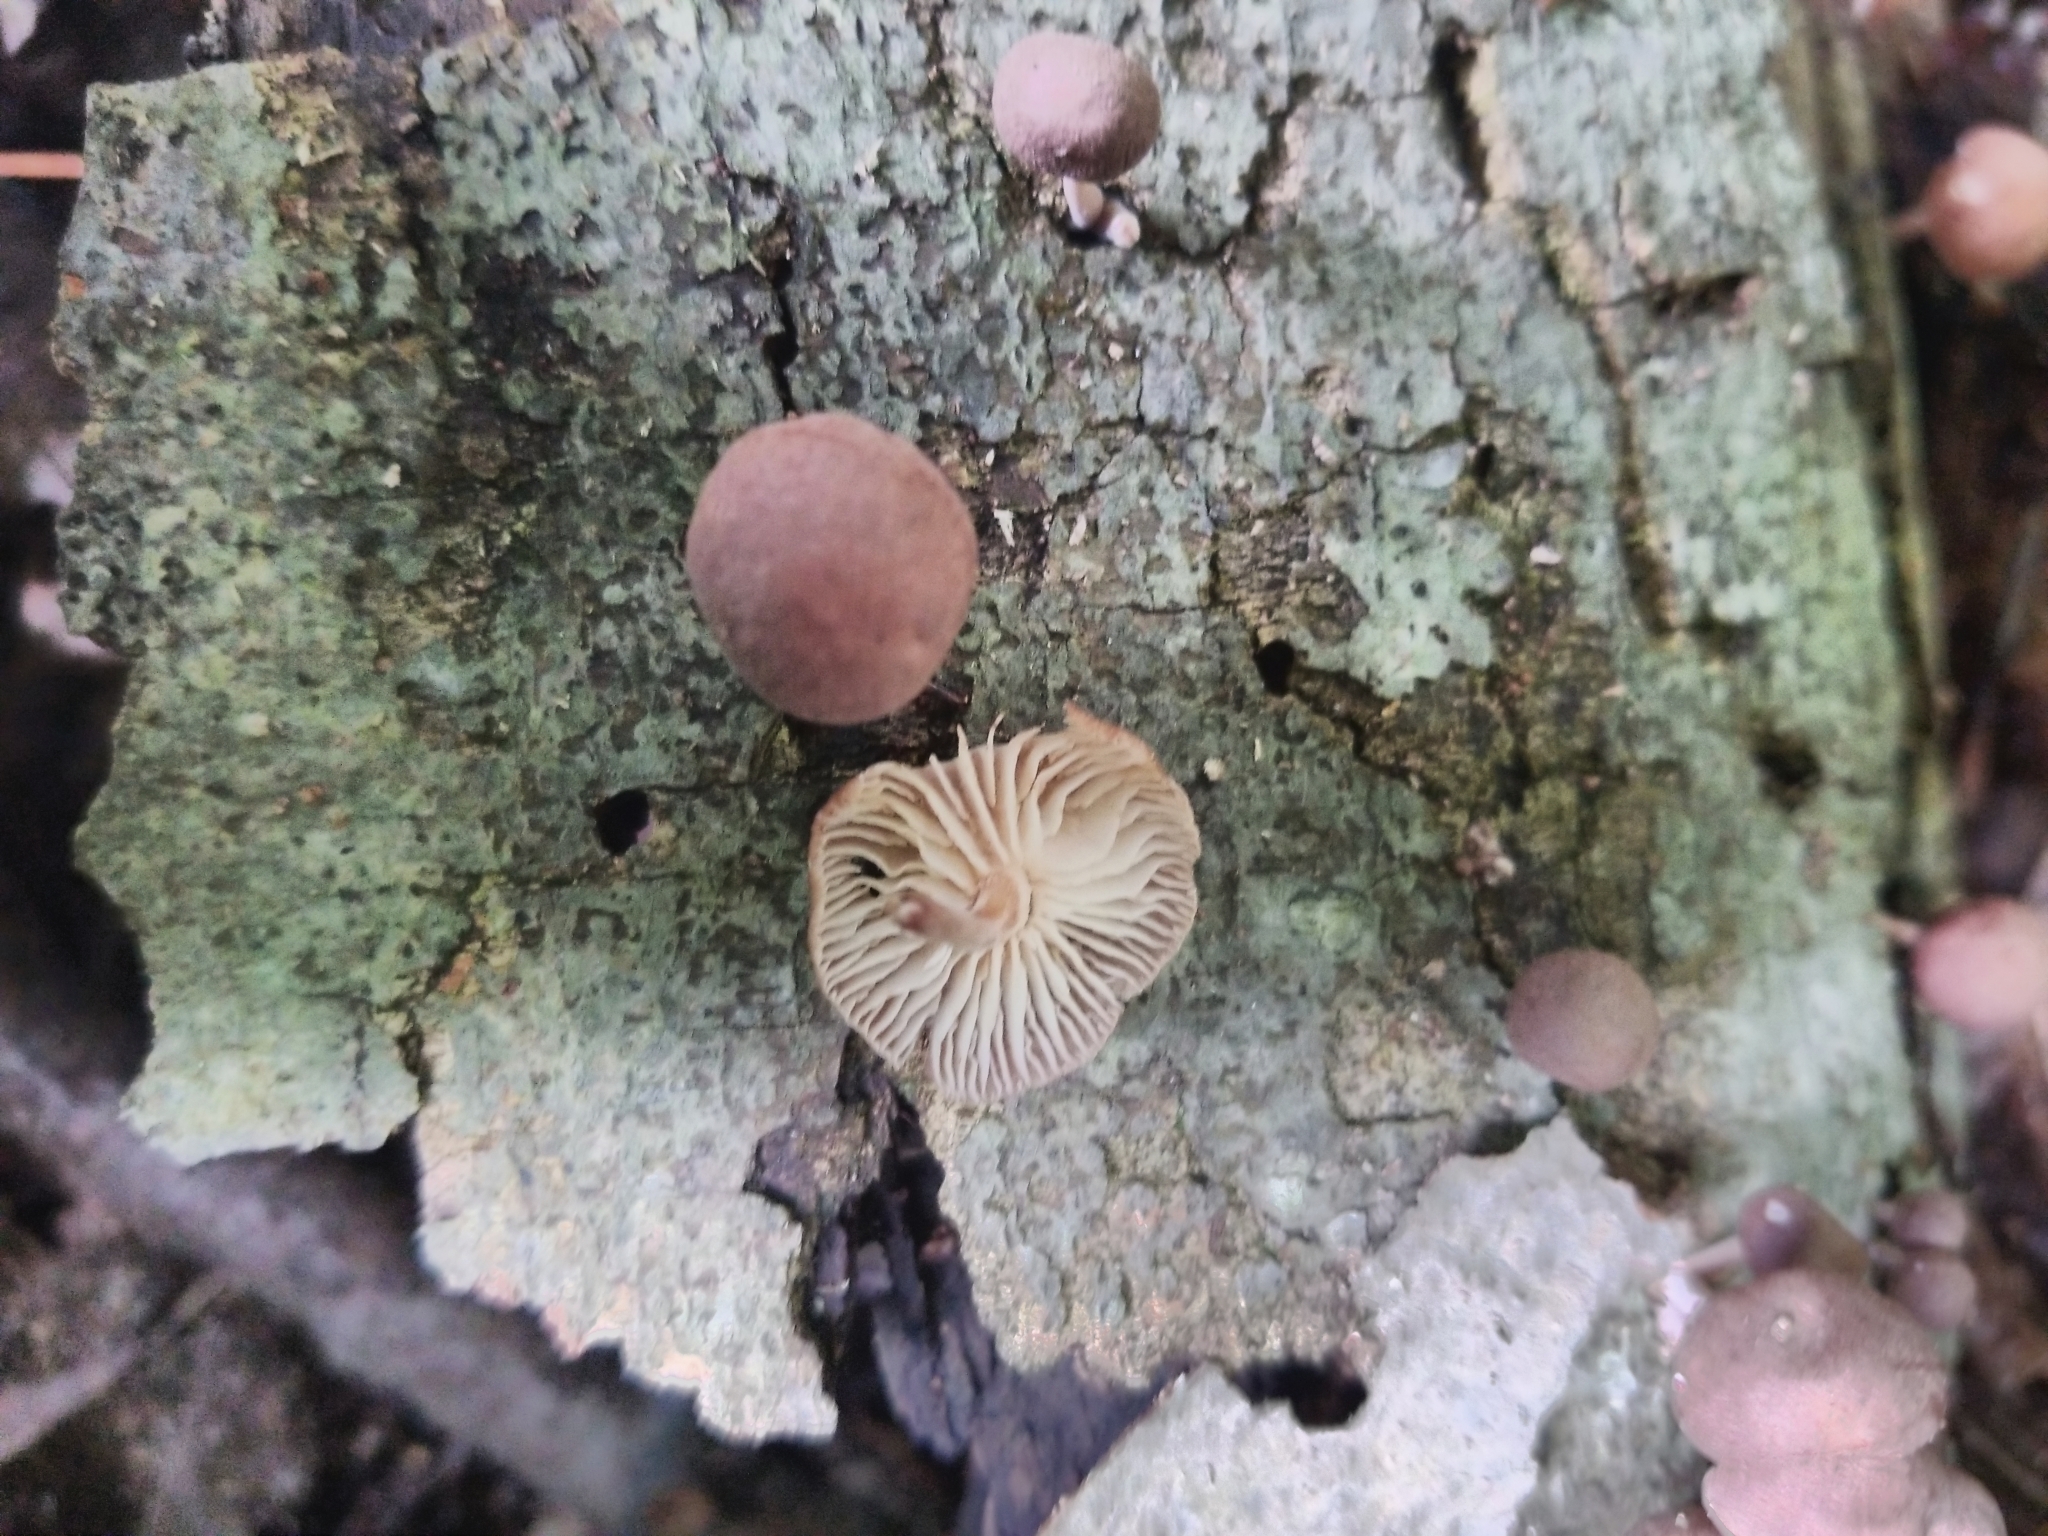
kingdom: Protozoa
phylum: Mycetozoa
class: Myxomycetes
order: Cribrariales
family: Tubiferaceae
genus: Lycogala
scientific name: Lycogala epidendrum
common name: Wolf's milk
